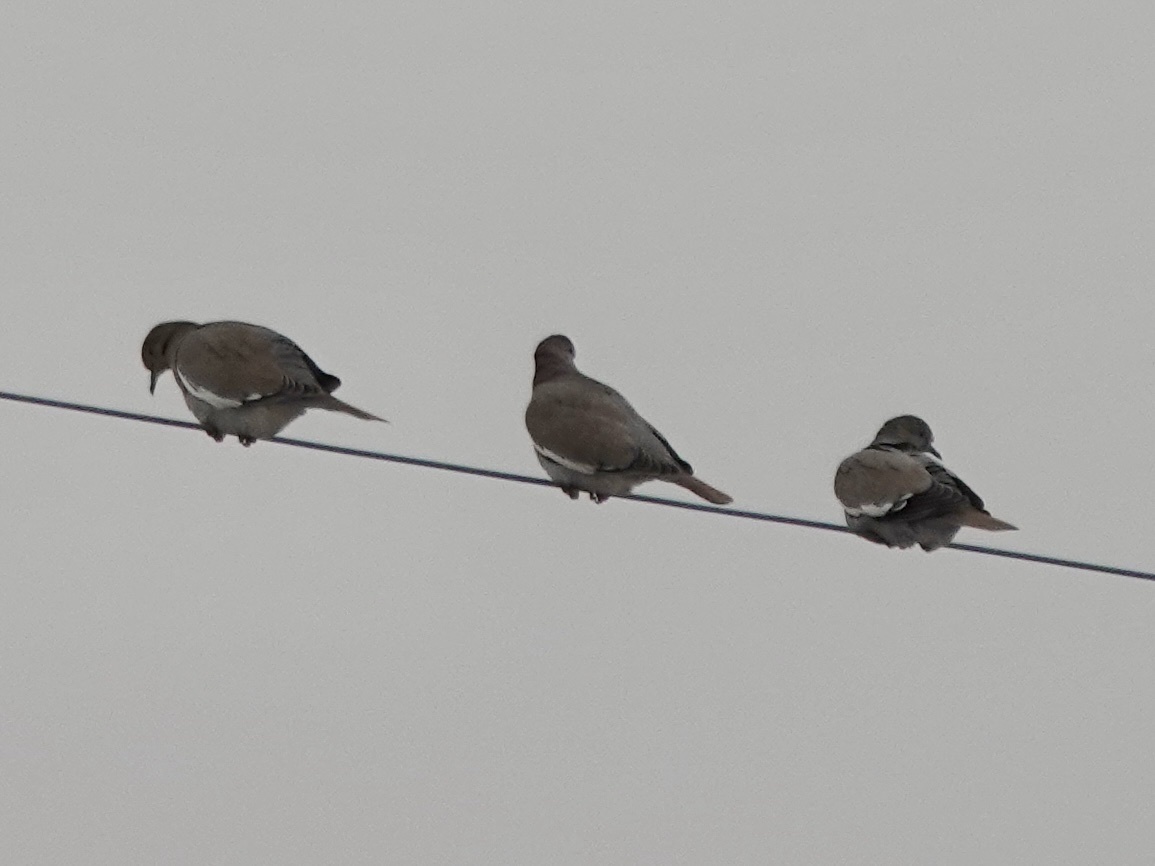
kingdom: Animalia
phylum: Chordata
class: Aves
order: Columbiformes
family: Columbidae
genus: Zenaida
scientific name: Zenaida asiatica
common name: White-winged dove
